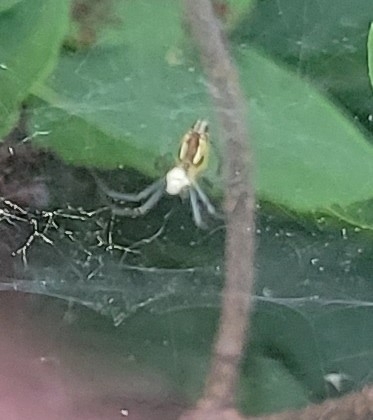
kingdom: Animalia
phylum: Arthropoda
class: Arachnida
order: Araneae
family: Araneidae
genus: Mecynogea
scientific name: Mecynogea lemniscata
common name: Orb weavers
